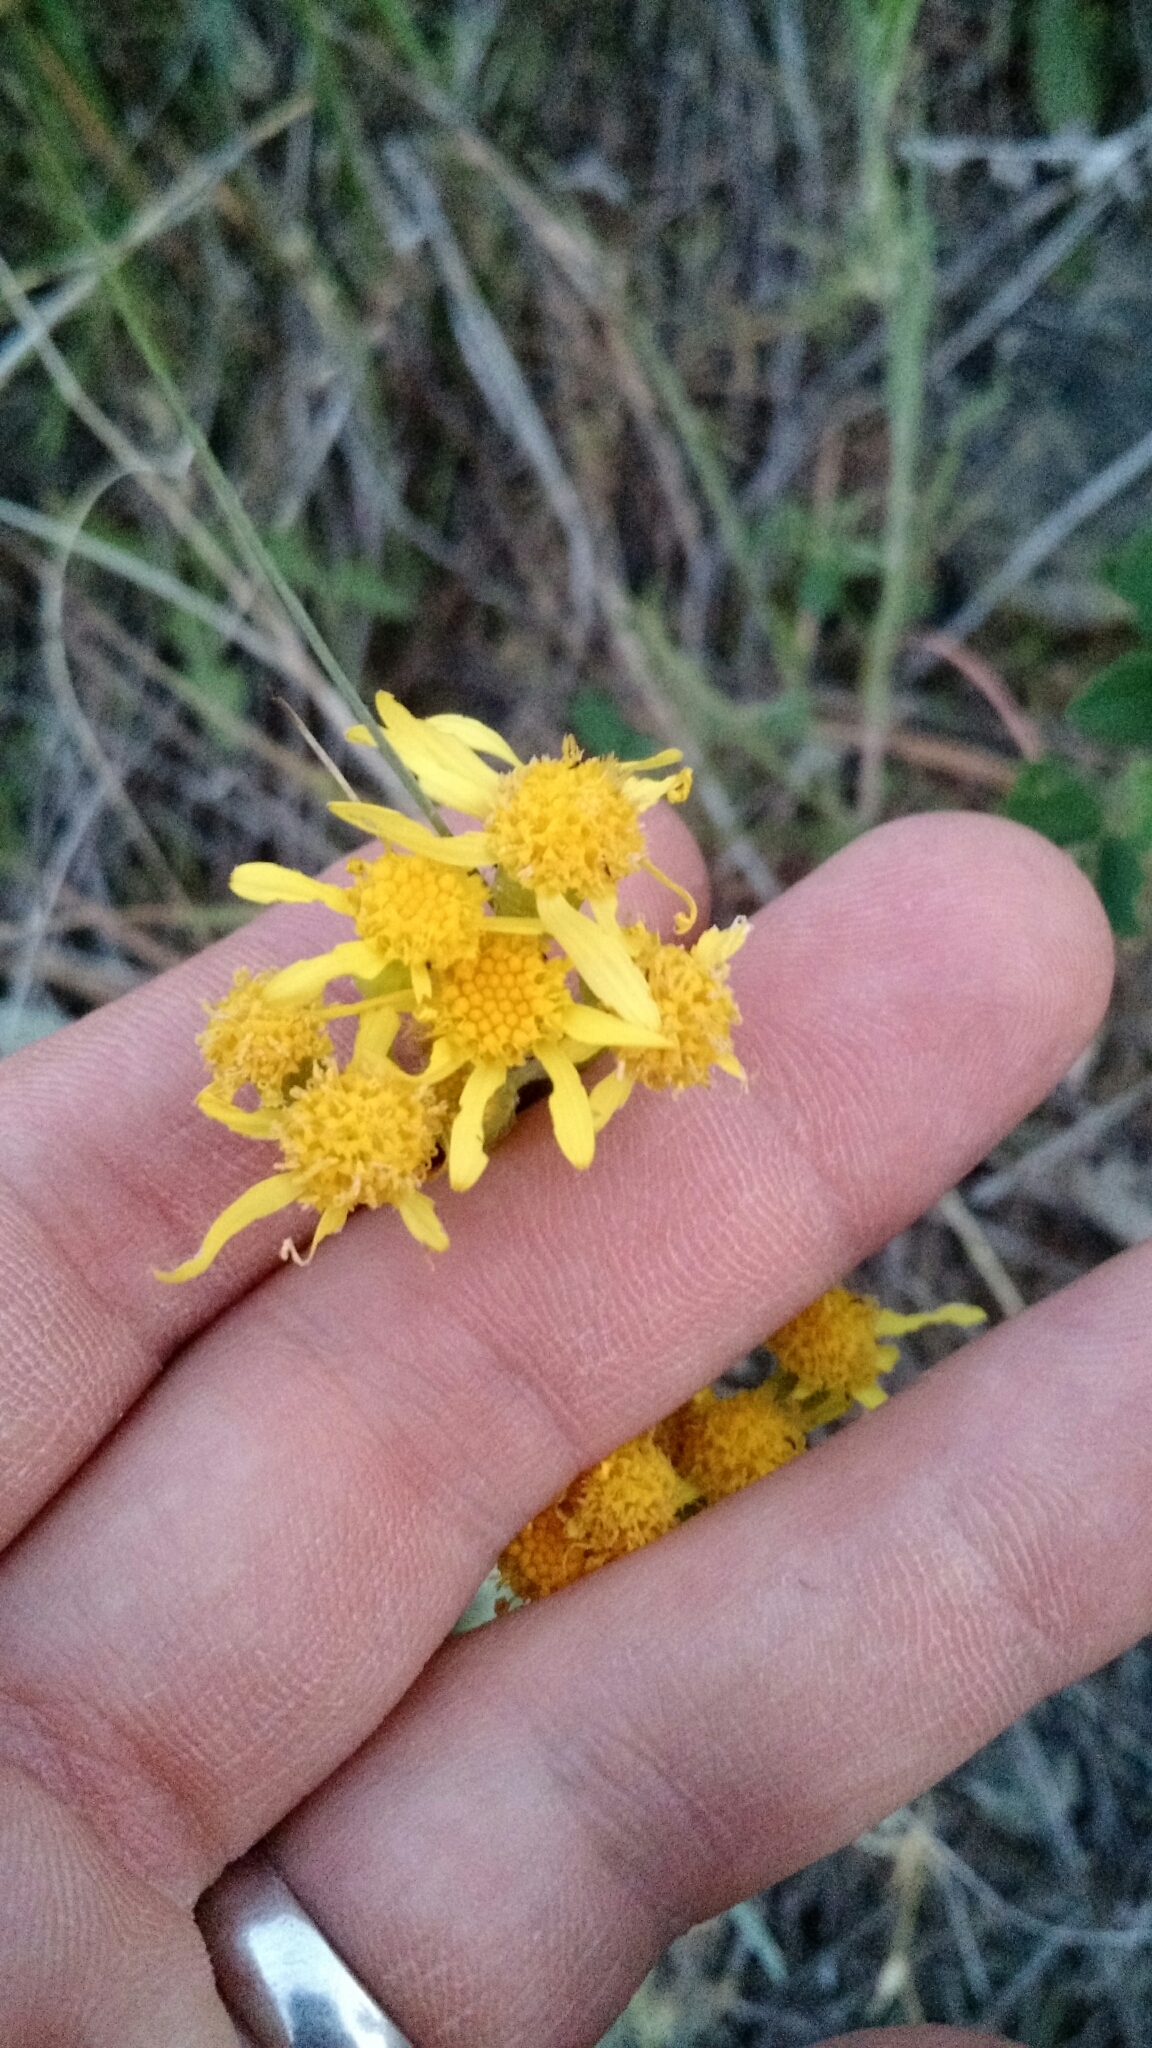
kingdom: Plantae
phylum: Tracheophyta
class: Magnoliopsida
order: Asterales
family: Asteraceae
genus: Packera
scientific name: Packera cana
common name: Woolly groundsel
